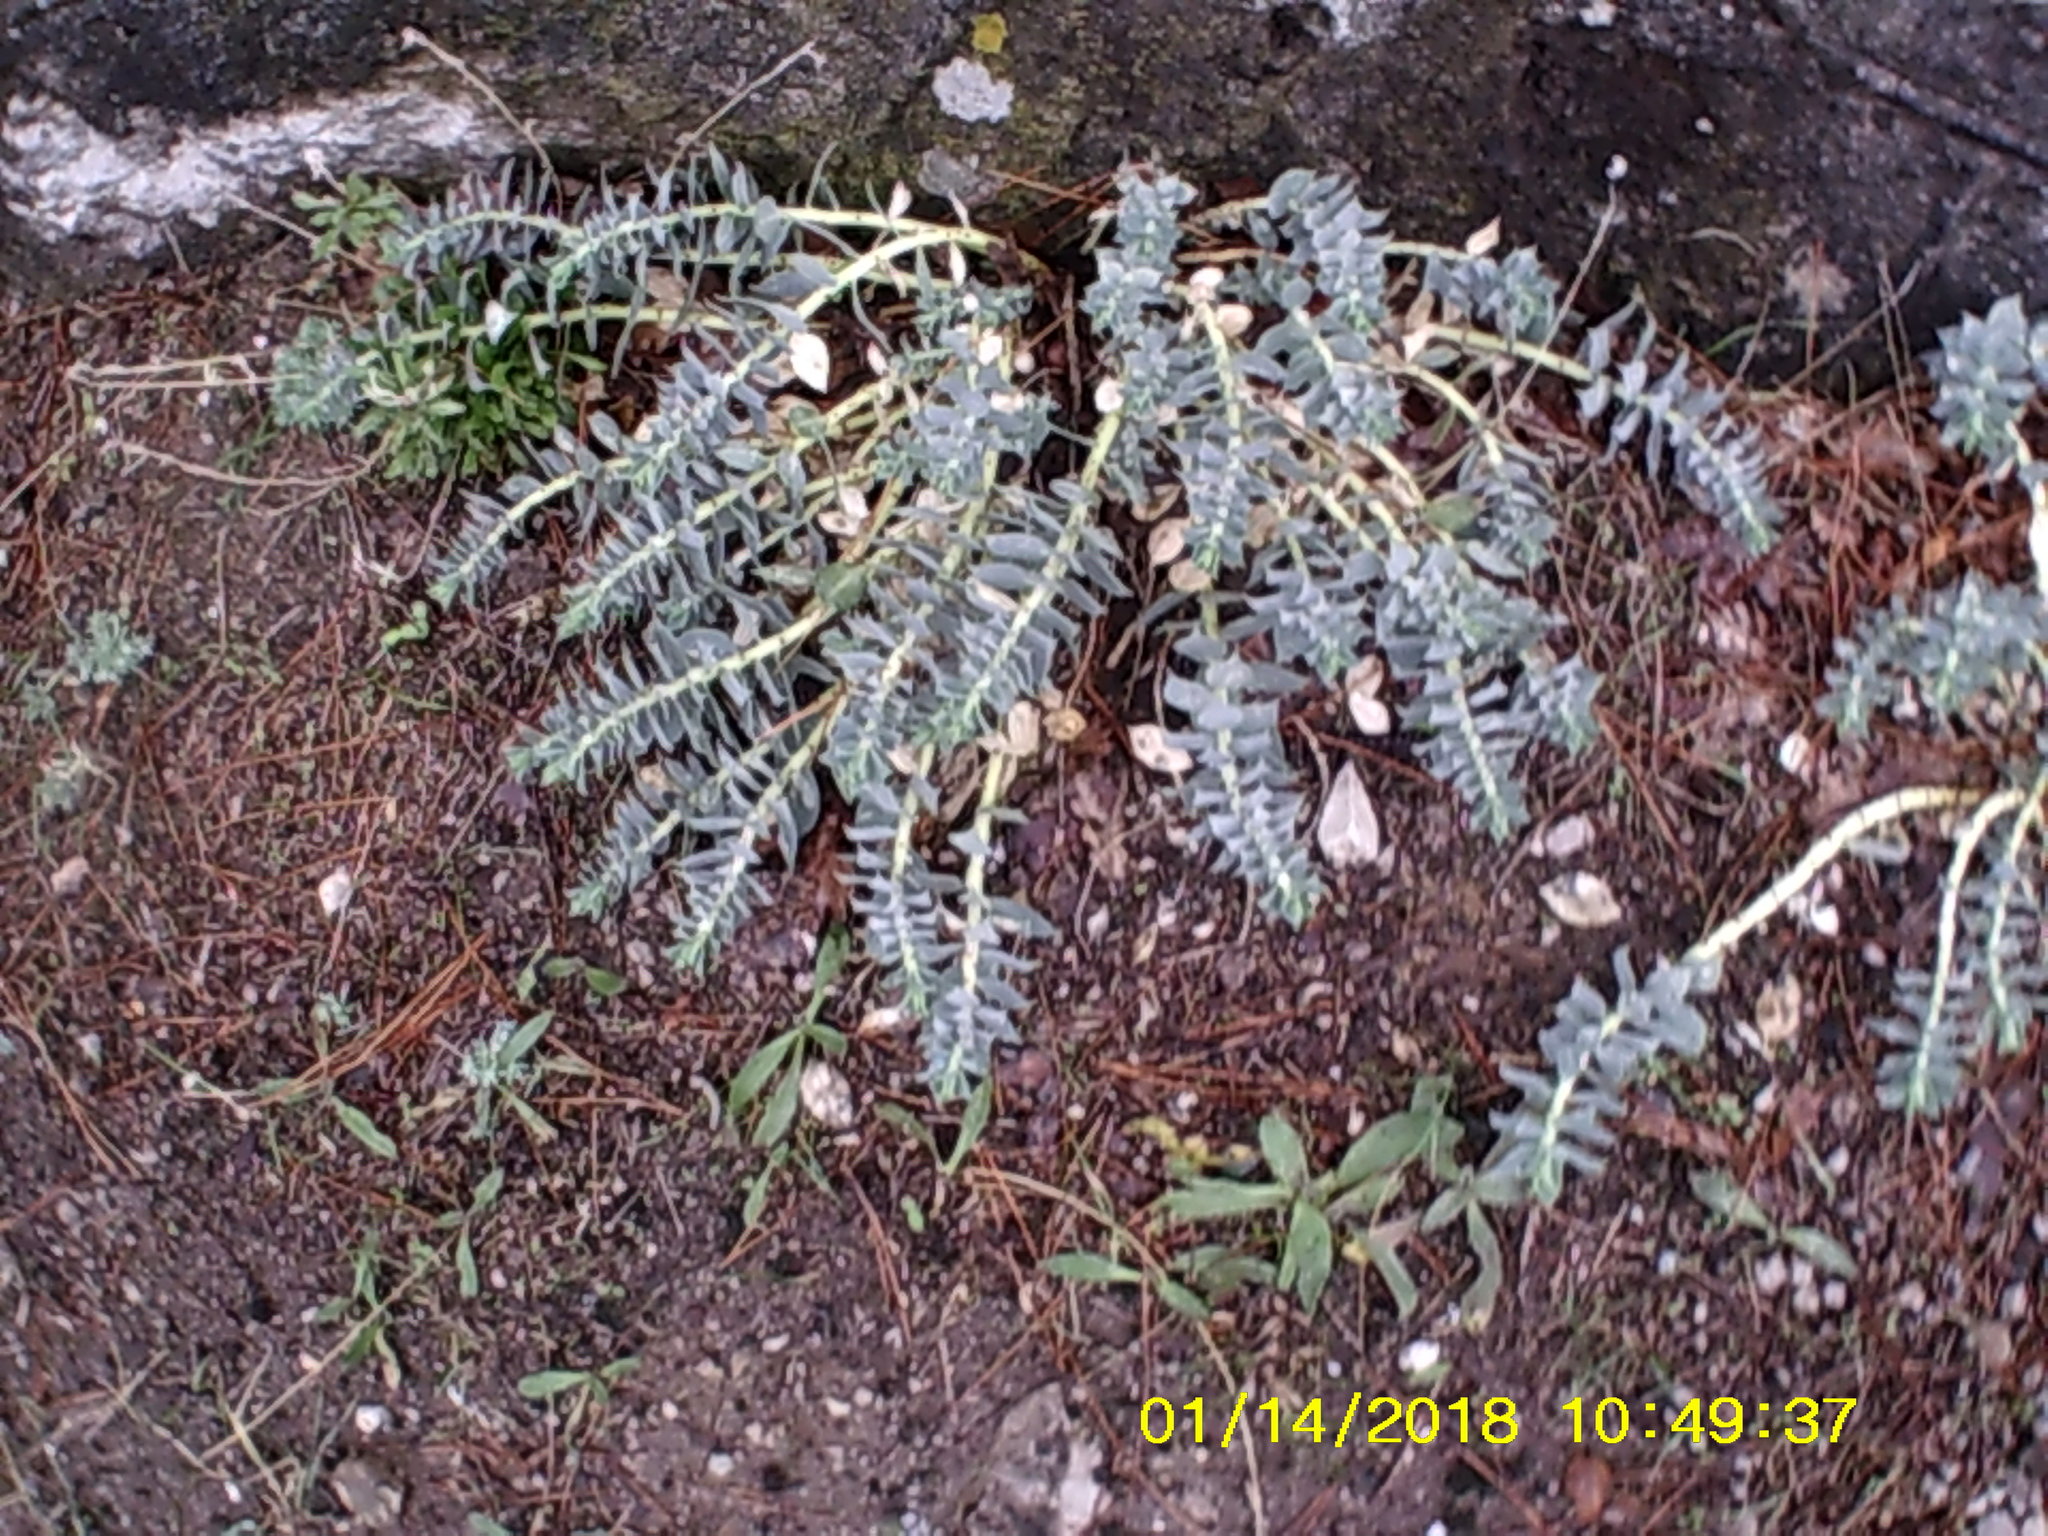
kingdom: Plantae
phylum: Tracheophyta
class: Magnoliopsida
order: Malpighiales
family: Euphorbiaceae
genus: Euphorbia
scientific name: Euphorbia myrsinites
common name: Myrtle spurge
